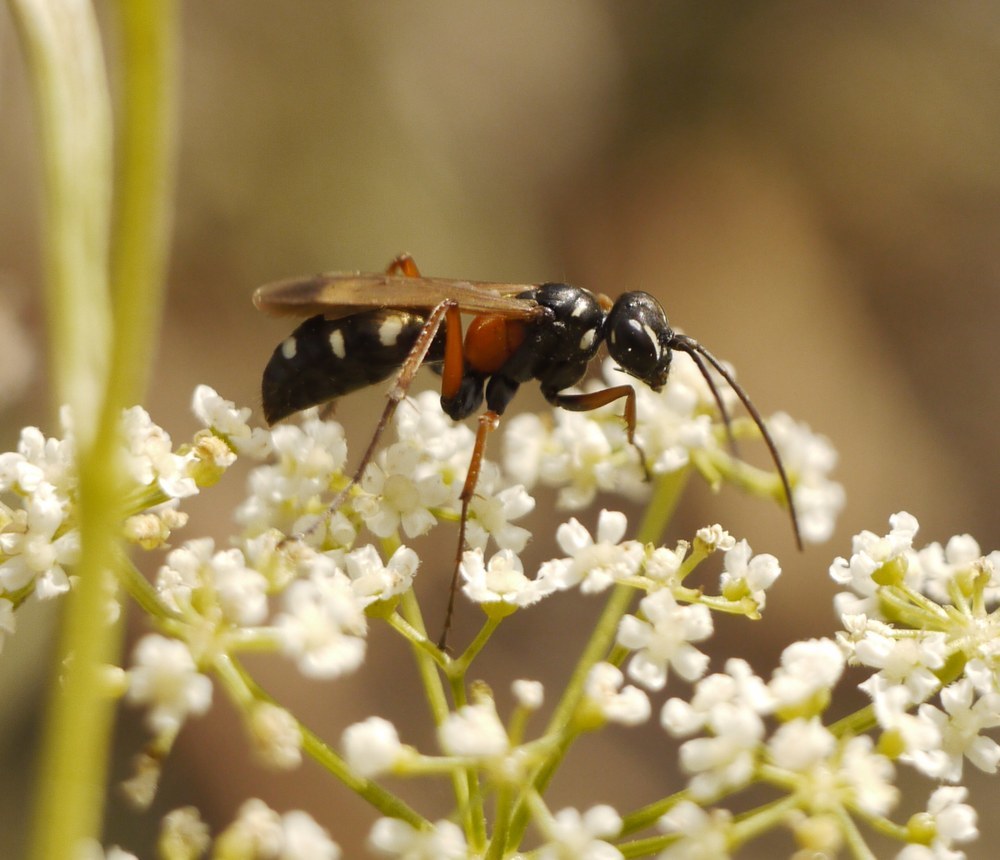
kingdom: Animalia
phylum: Arthropoda
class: Insecta
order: Hymenoptera
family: Pompilidae
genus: Cryptocheilus
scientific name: Cryptocheilus fabricii
